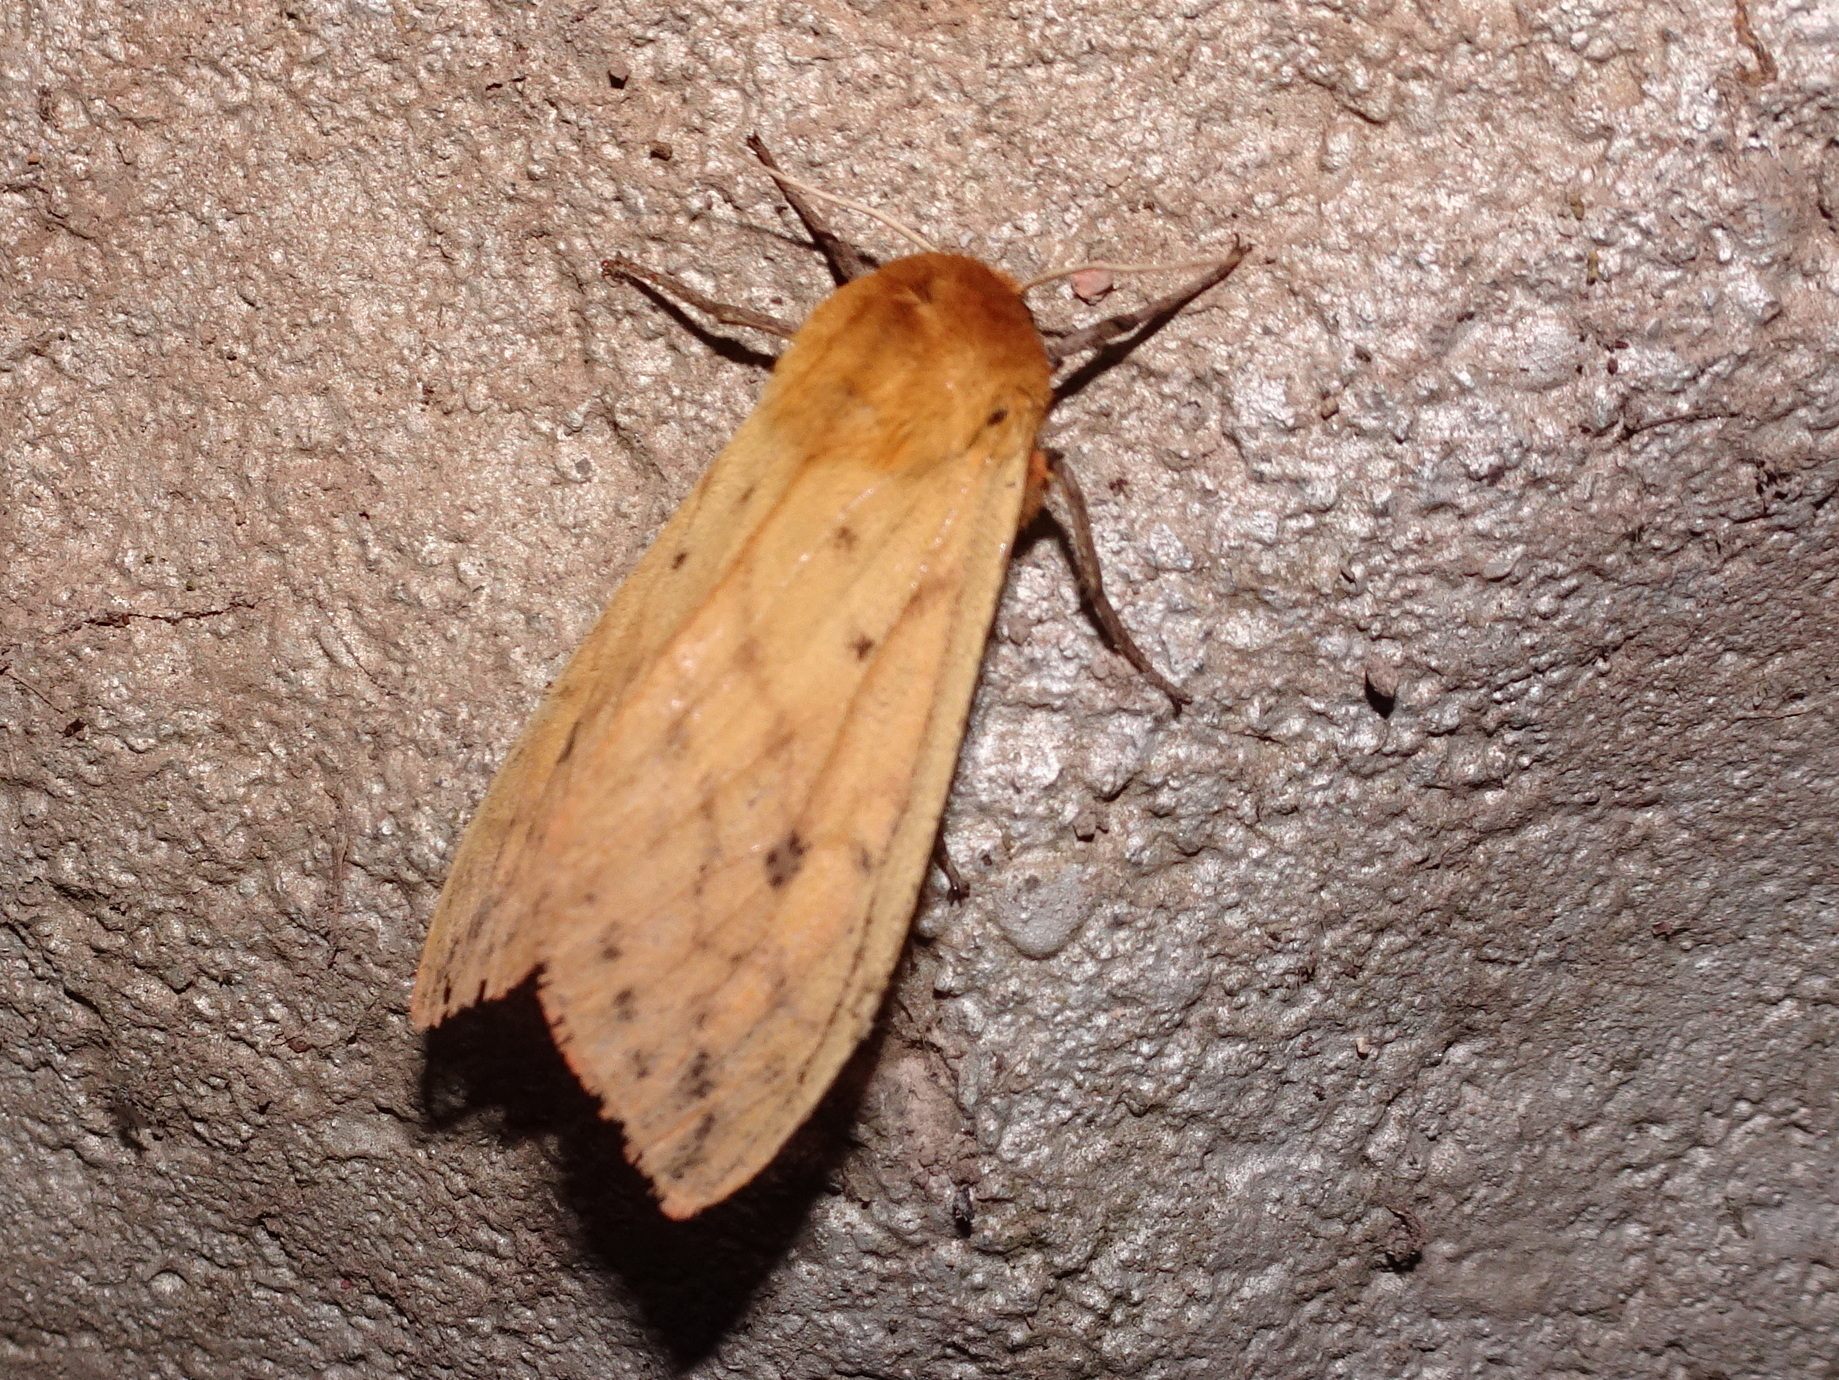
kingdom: Animalia
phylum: Arthropoda
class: Insecta
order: Lepidoptera
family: Erebidae
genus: Pyrrharctia
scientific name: Pyrrharctia isabella
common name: Isabella tiger moth
